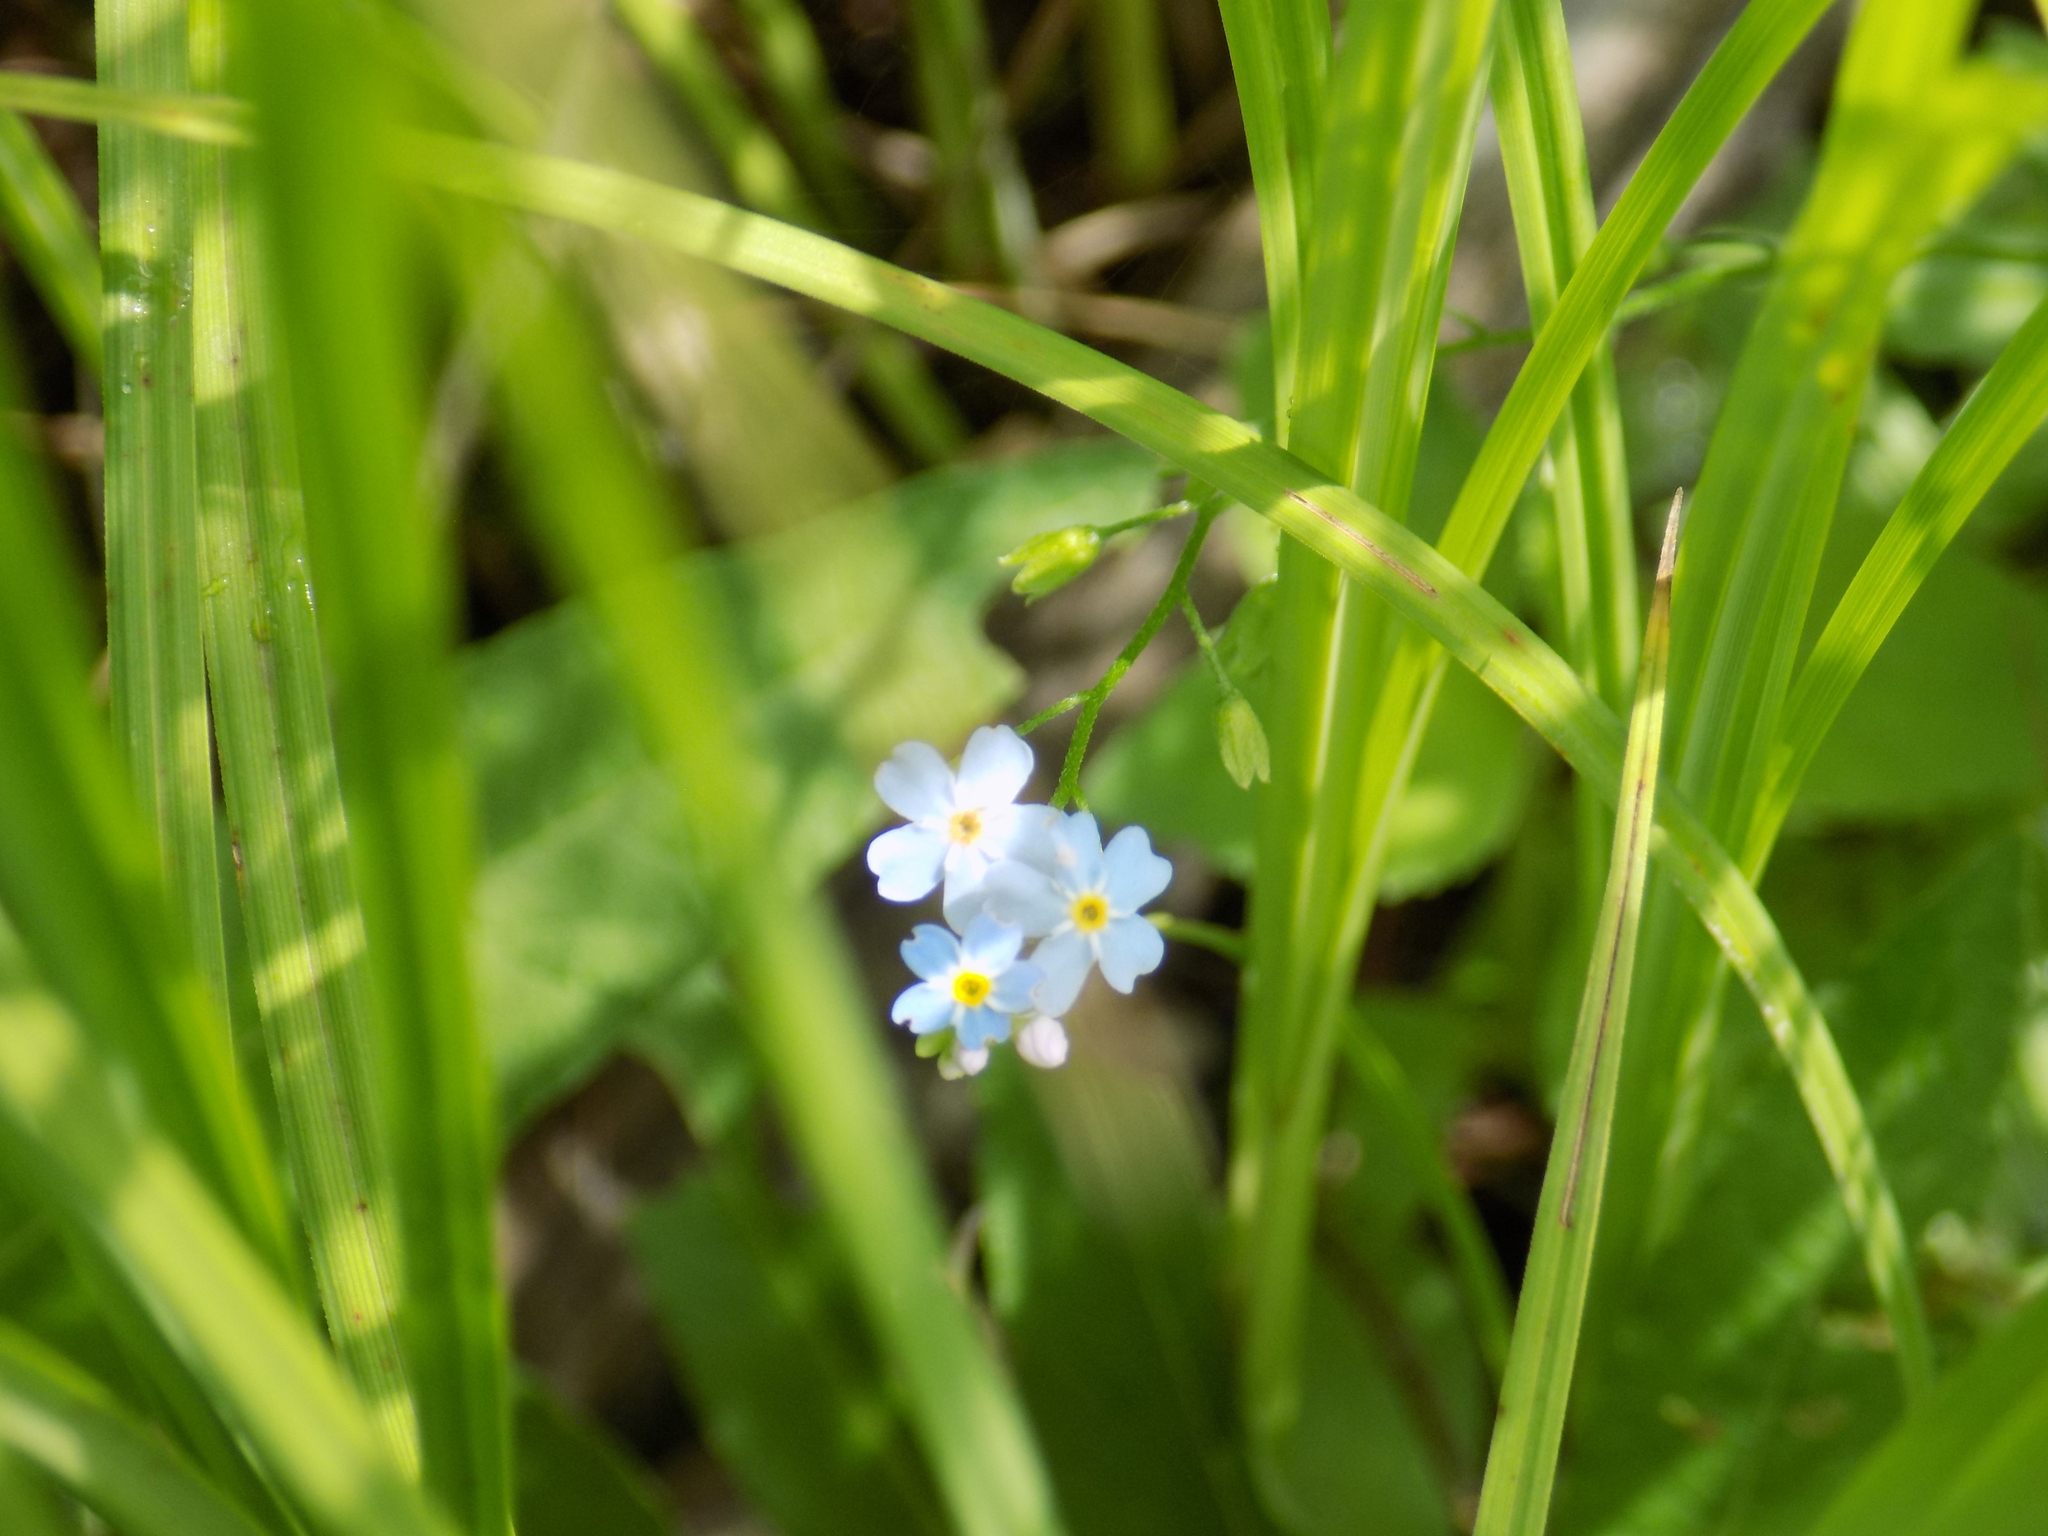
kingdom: Plantae
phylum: Tracheophyta
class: Magnoliopsida
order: Boraginales
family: Boraginaceae
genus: Myosotis
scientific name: Myosotis scorpioides
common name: Water forget-me-not
